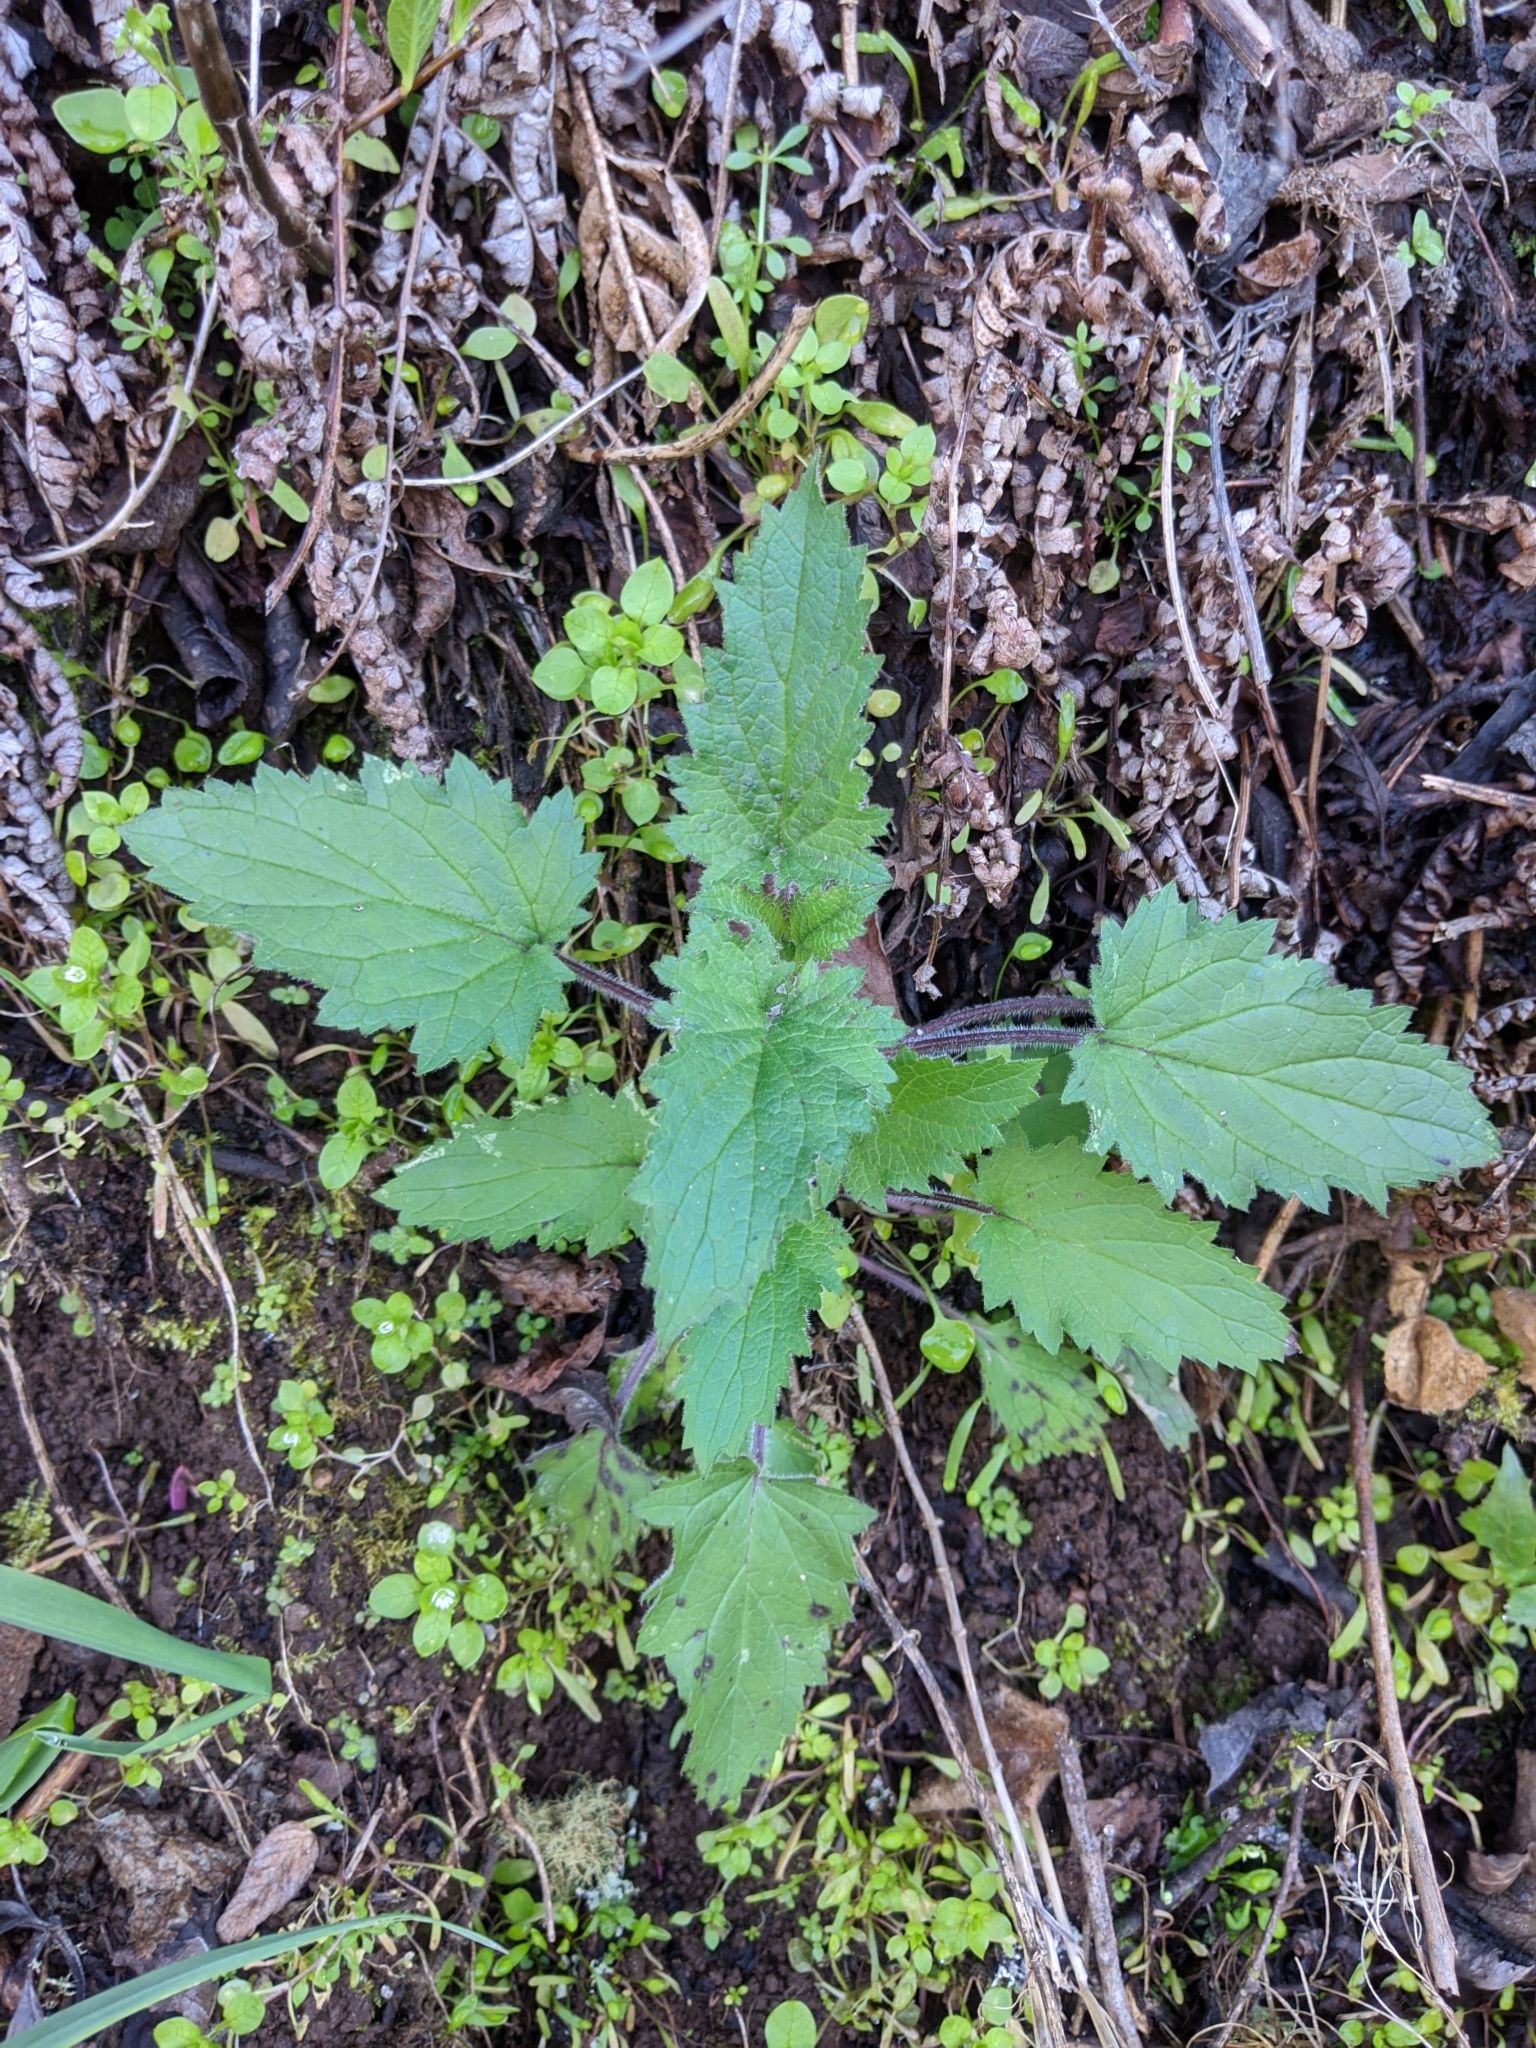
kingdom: Plantae
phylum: Tracheophyta
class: Magnoliopsida
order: Lamiales
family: Scrophulariaceae
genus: Scrophularia
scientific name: Scrophularia californica
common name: California figwort
